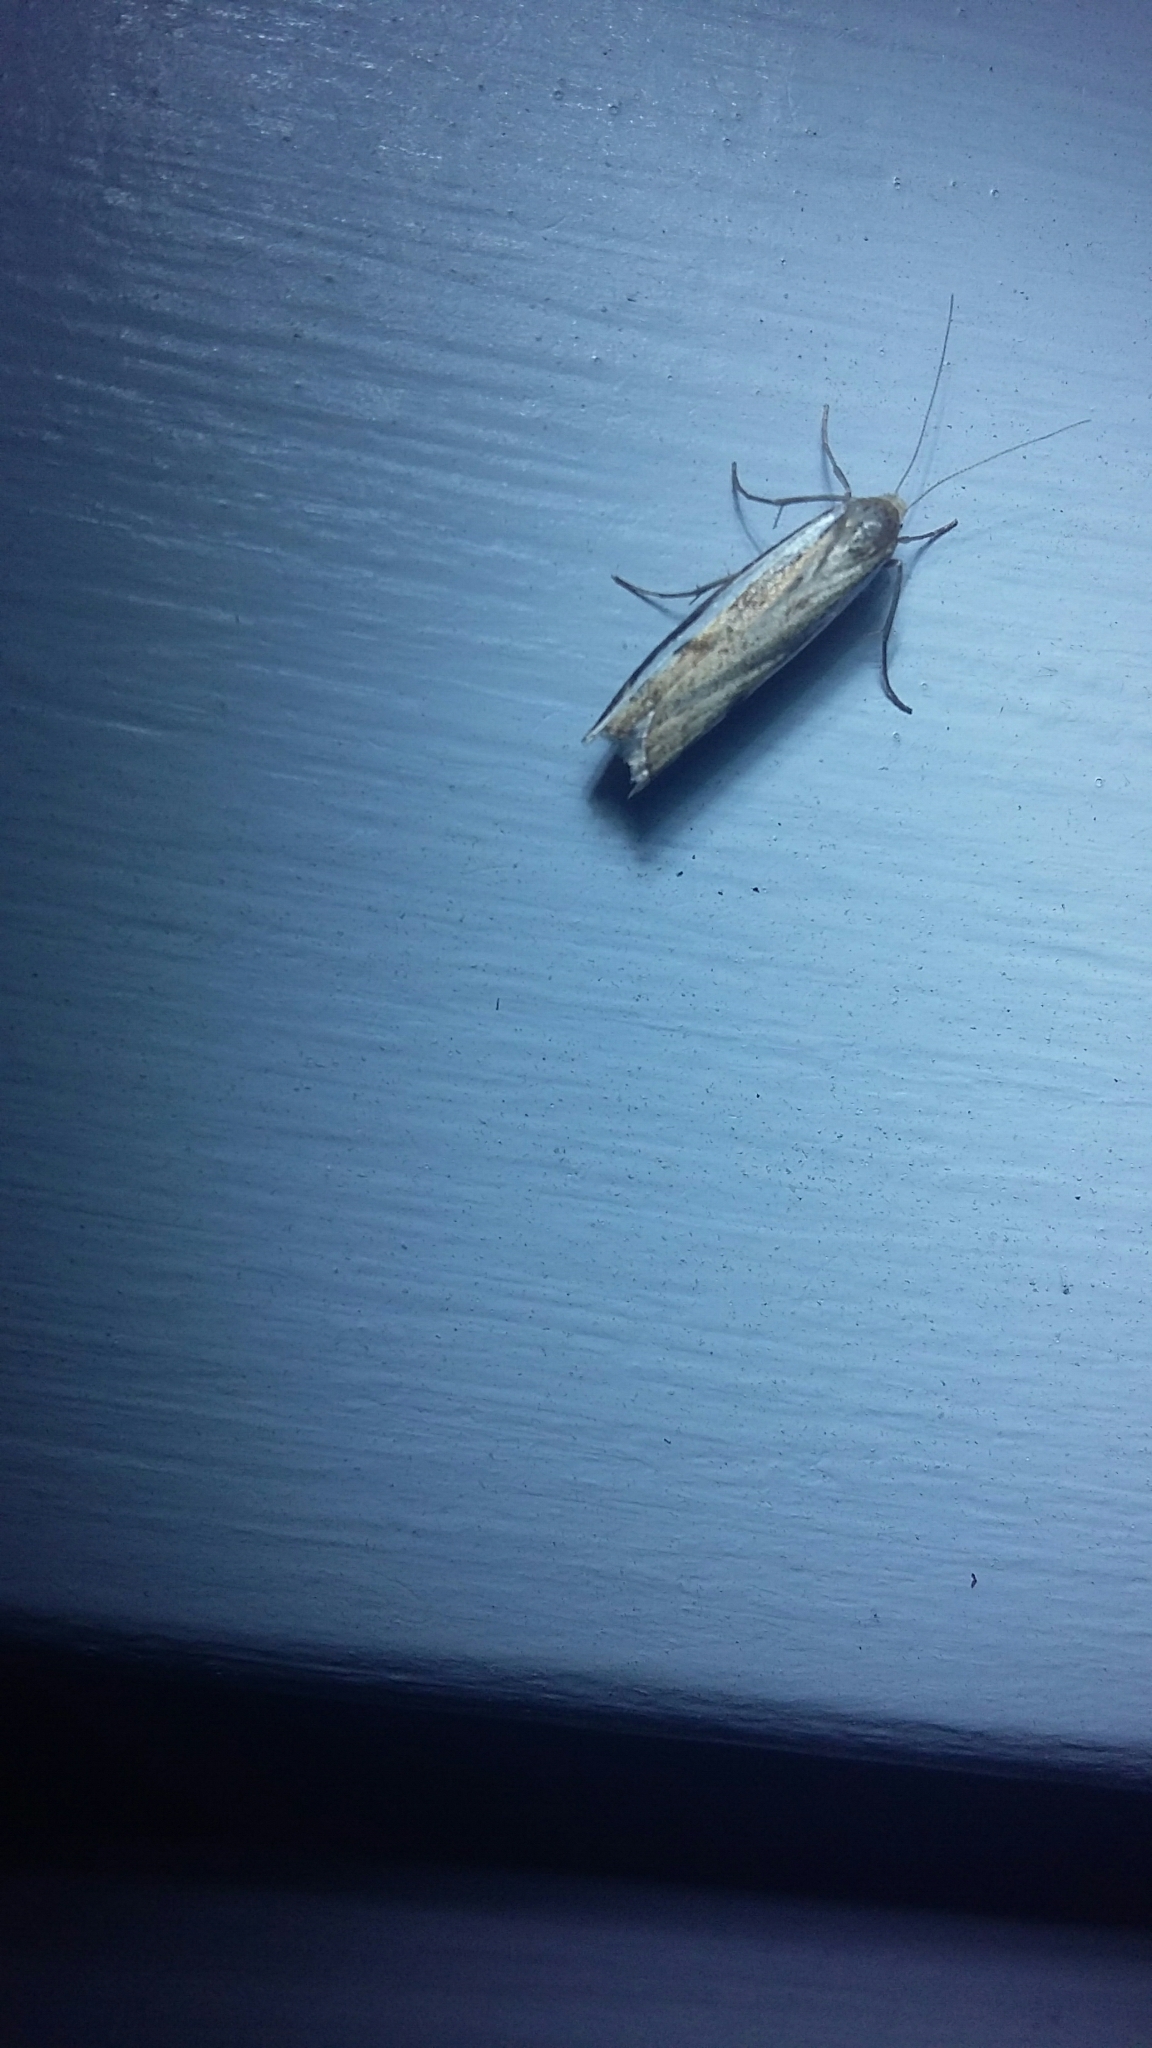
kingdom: Animalia
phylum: Arthropoda
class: Insecta
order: Lepidoptera
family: Crambidae
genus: Orocrambus
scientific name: Orocrambus flexuosellus
